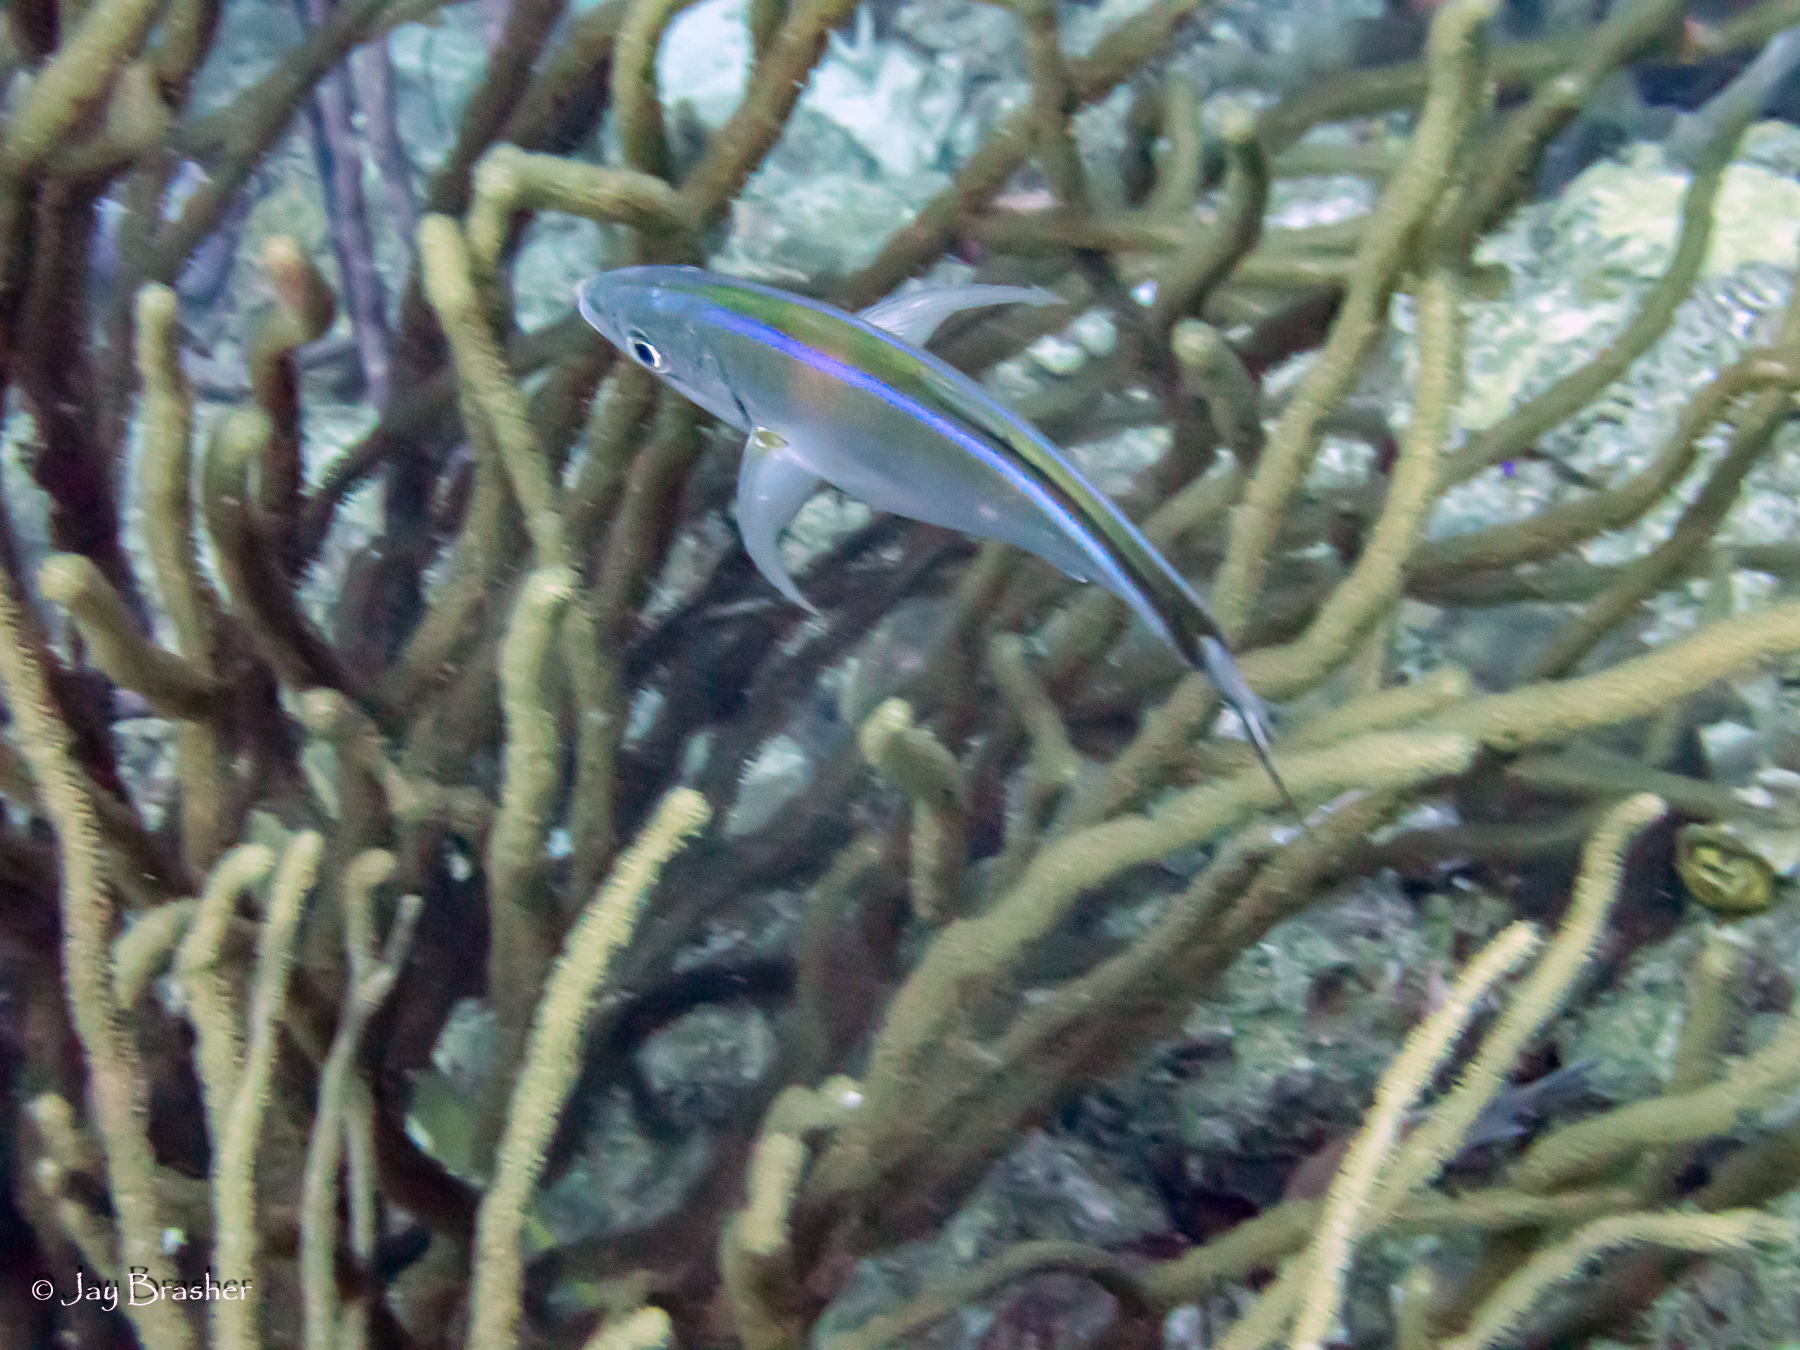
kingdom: Animalia
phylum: Chordata
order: Perciformes
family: Carangidae
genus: Caranx
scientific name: Caranx ruber
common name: Bar jack
